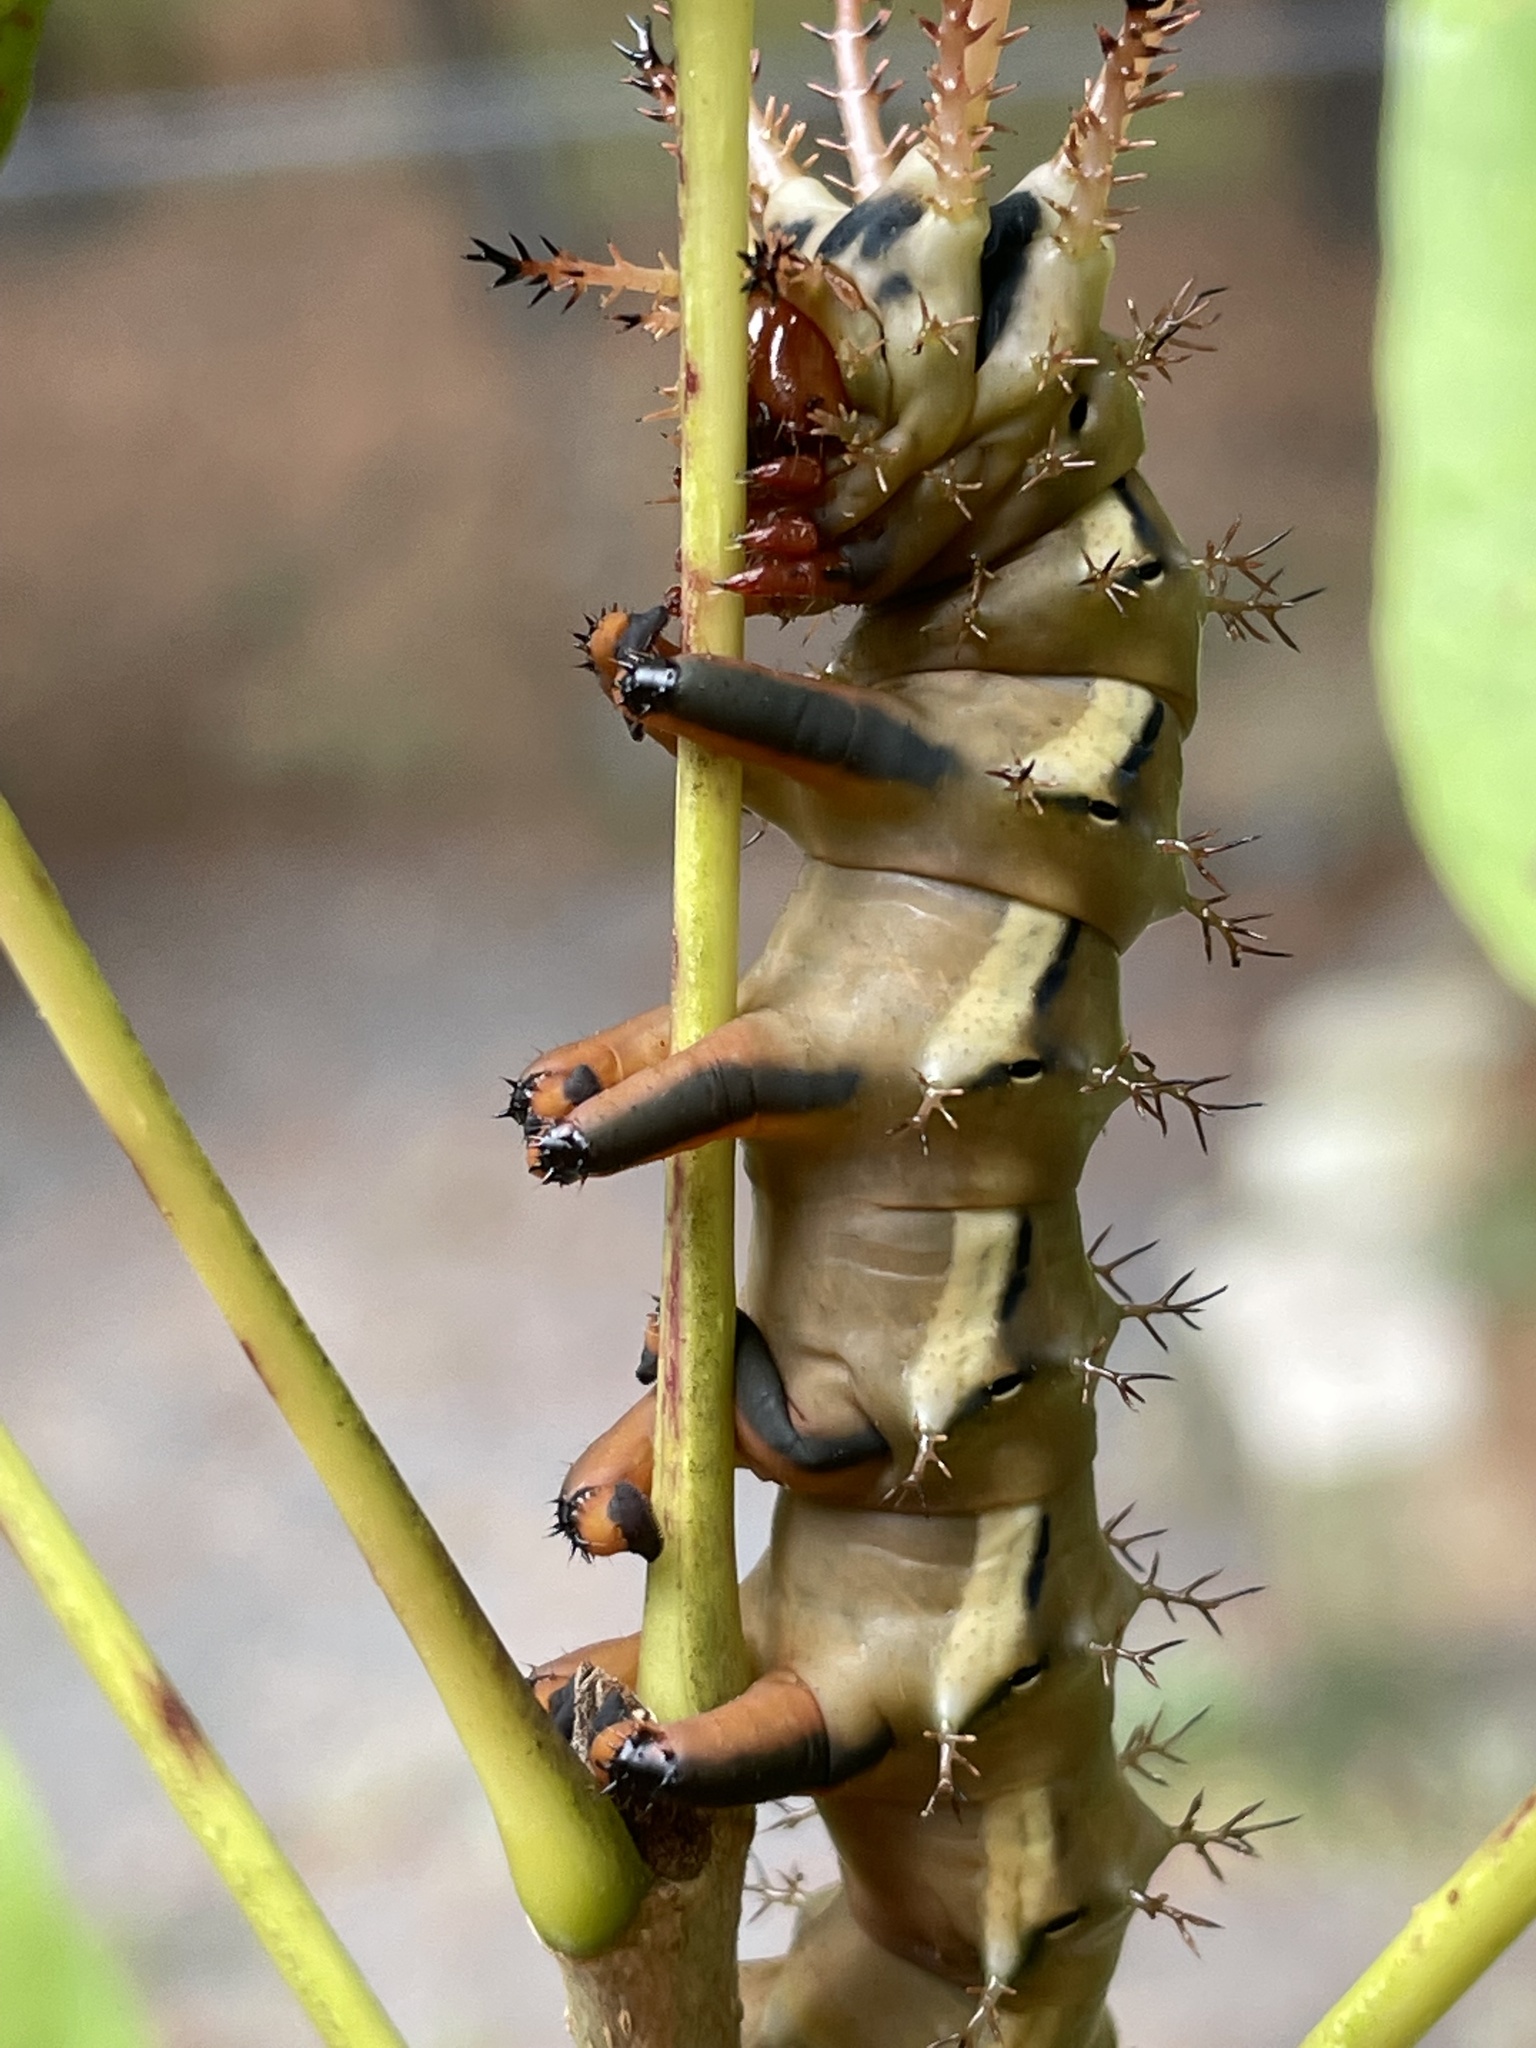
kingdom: Animalia
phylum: Arthropoda
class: Insecta
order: Lepidoptera
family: Saturniidae
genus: Citheronia
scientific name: Citheronia regalis
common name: Hickory horned devil
